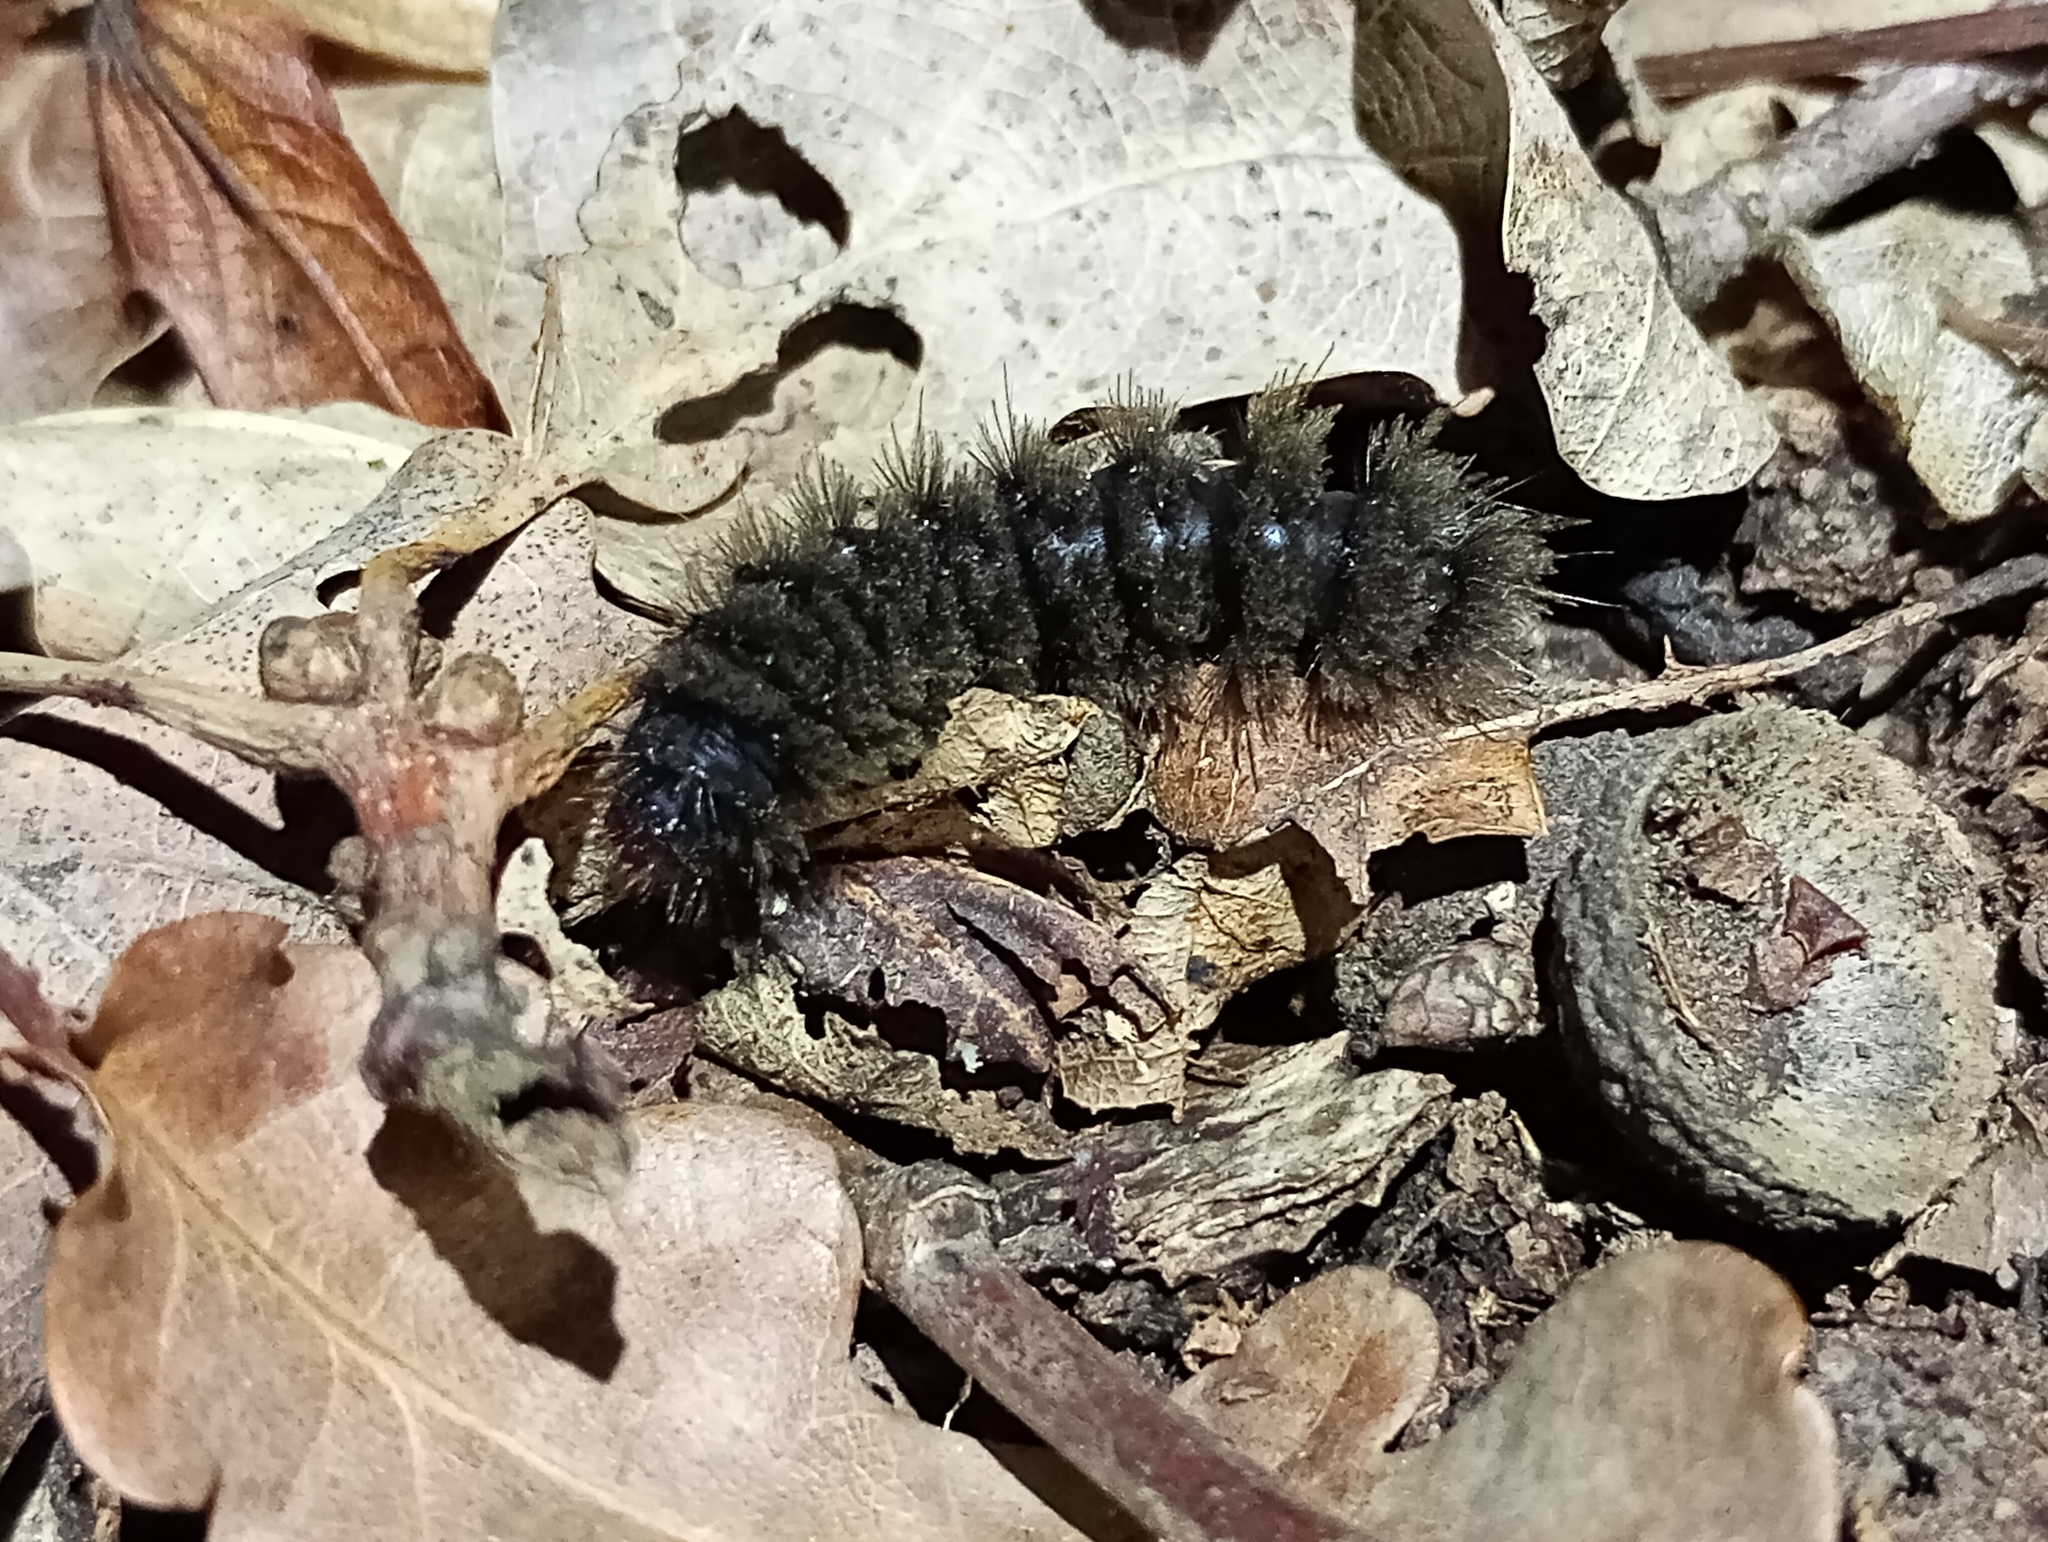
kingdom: Animalia
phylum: Arthropoda
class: Insecta
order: Lepidoptera
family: Erebidae
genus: Amata
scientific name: Amata phegea
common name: Nine-spotted
